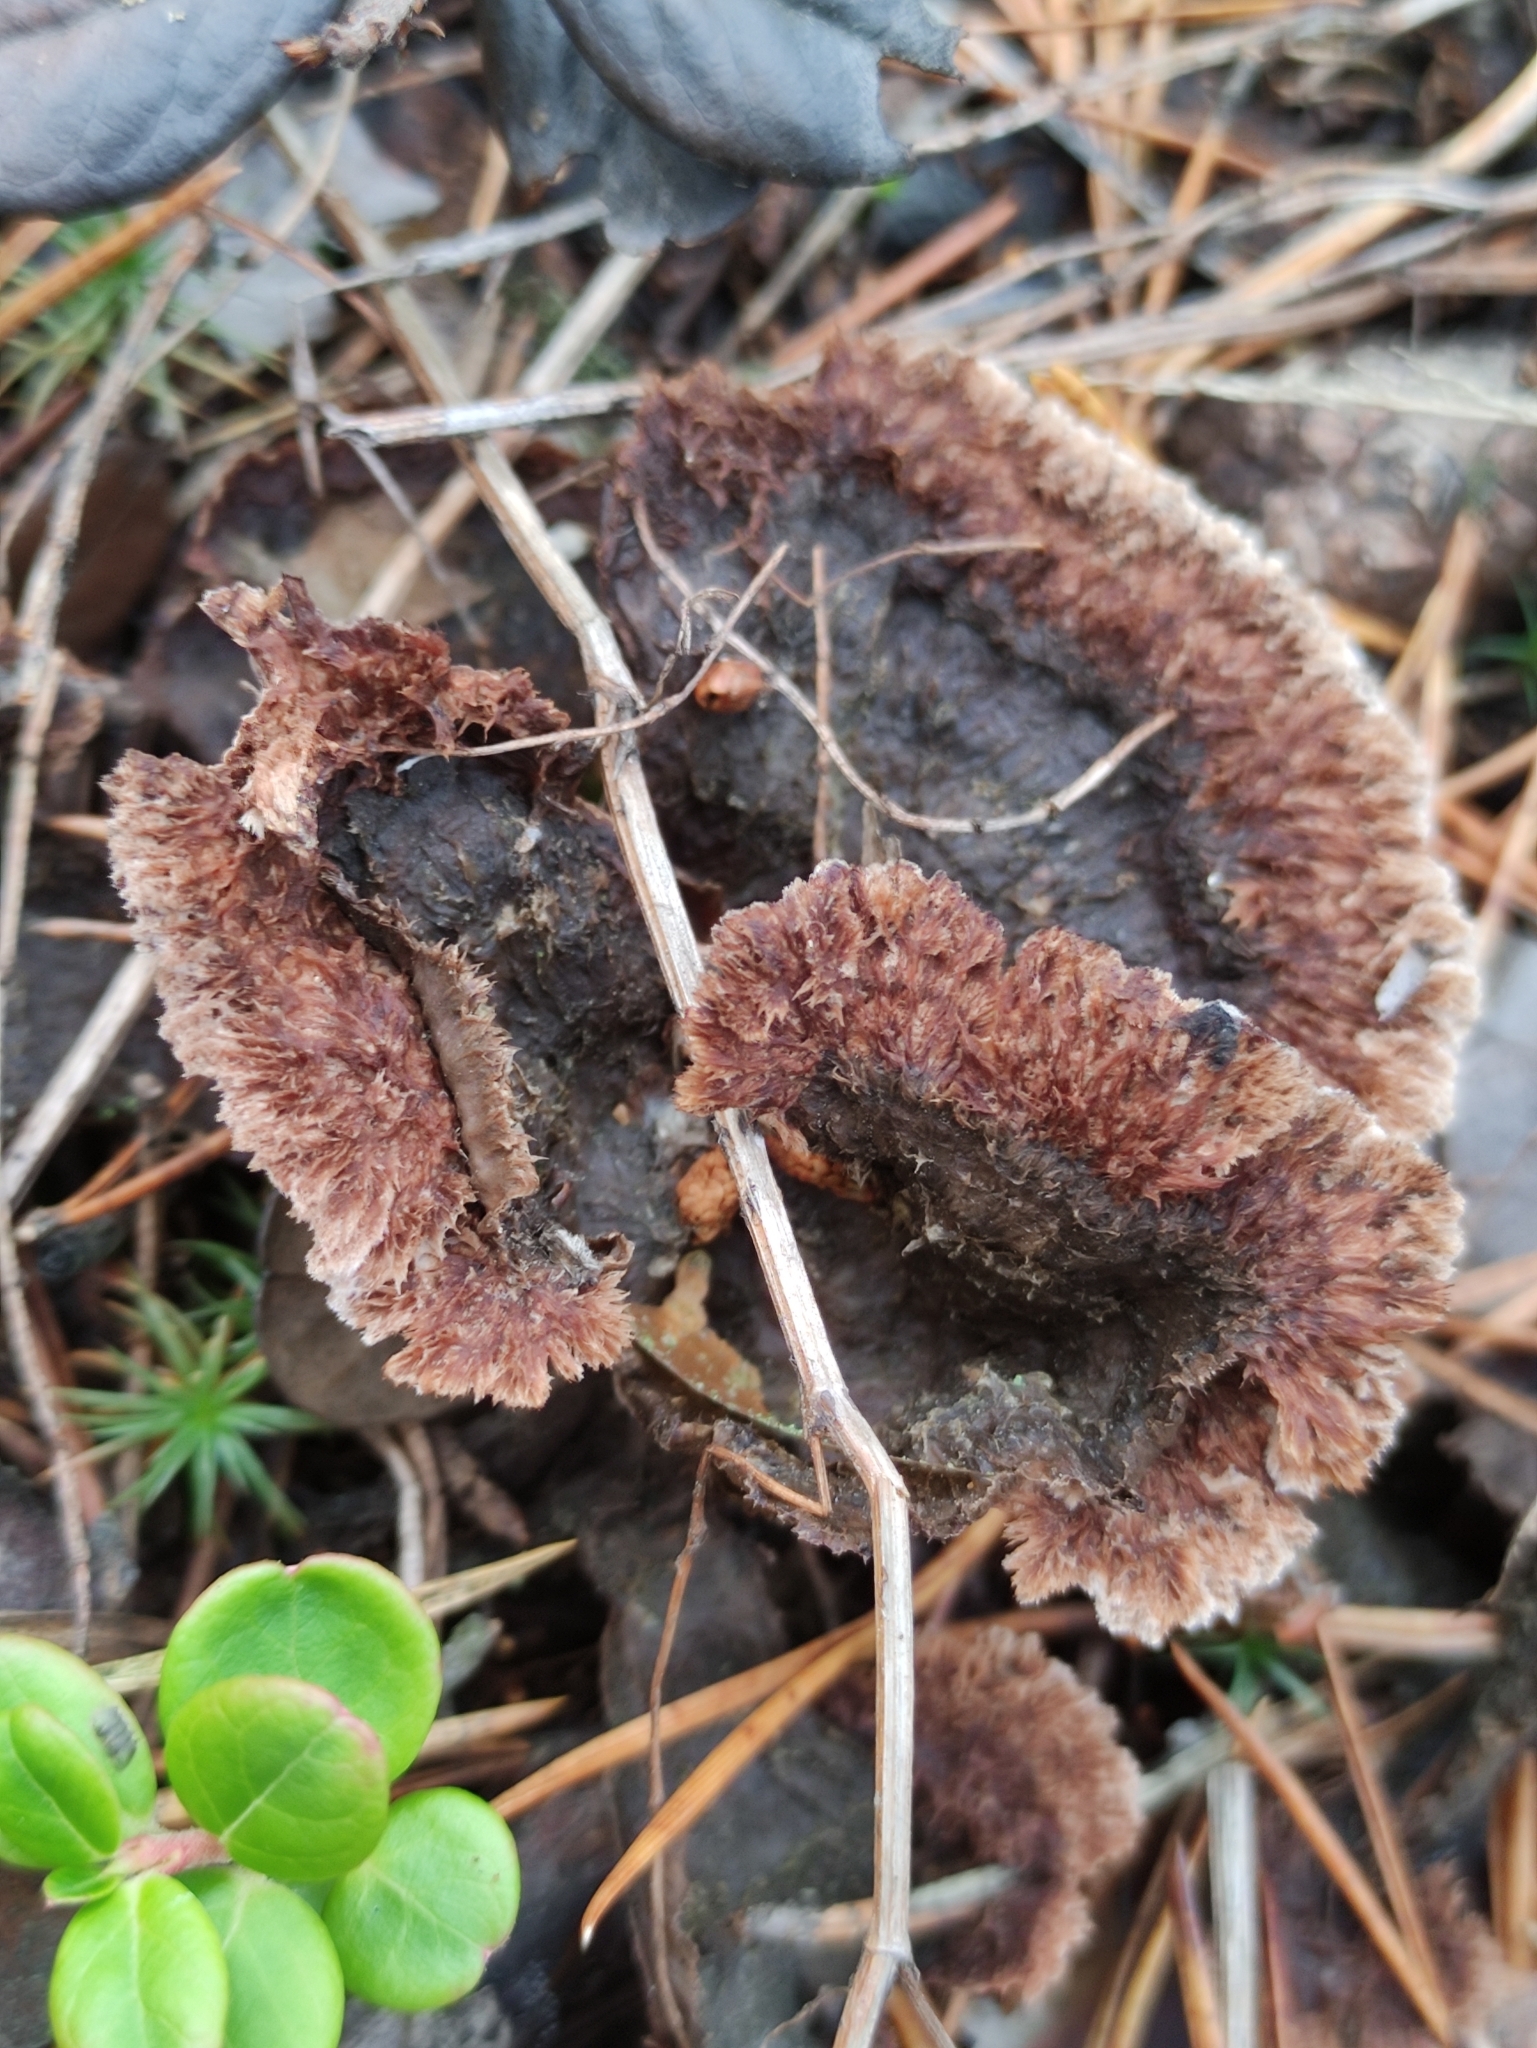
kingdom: Fungi
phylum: Basidiomycota
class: Agaricomycetes
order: Thelephorales
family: Thelephoraceae
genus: Thelephora
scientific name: Thelephora terrestris
